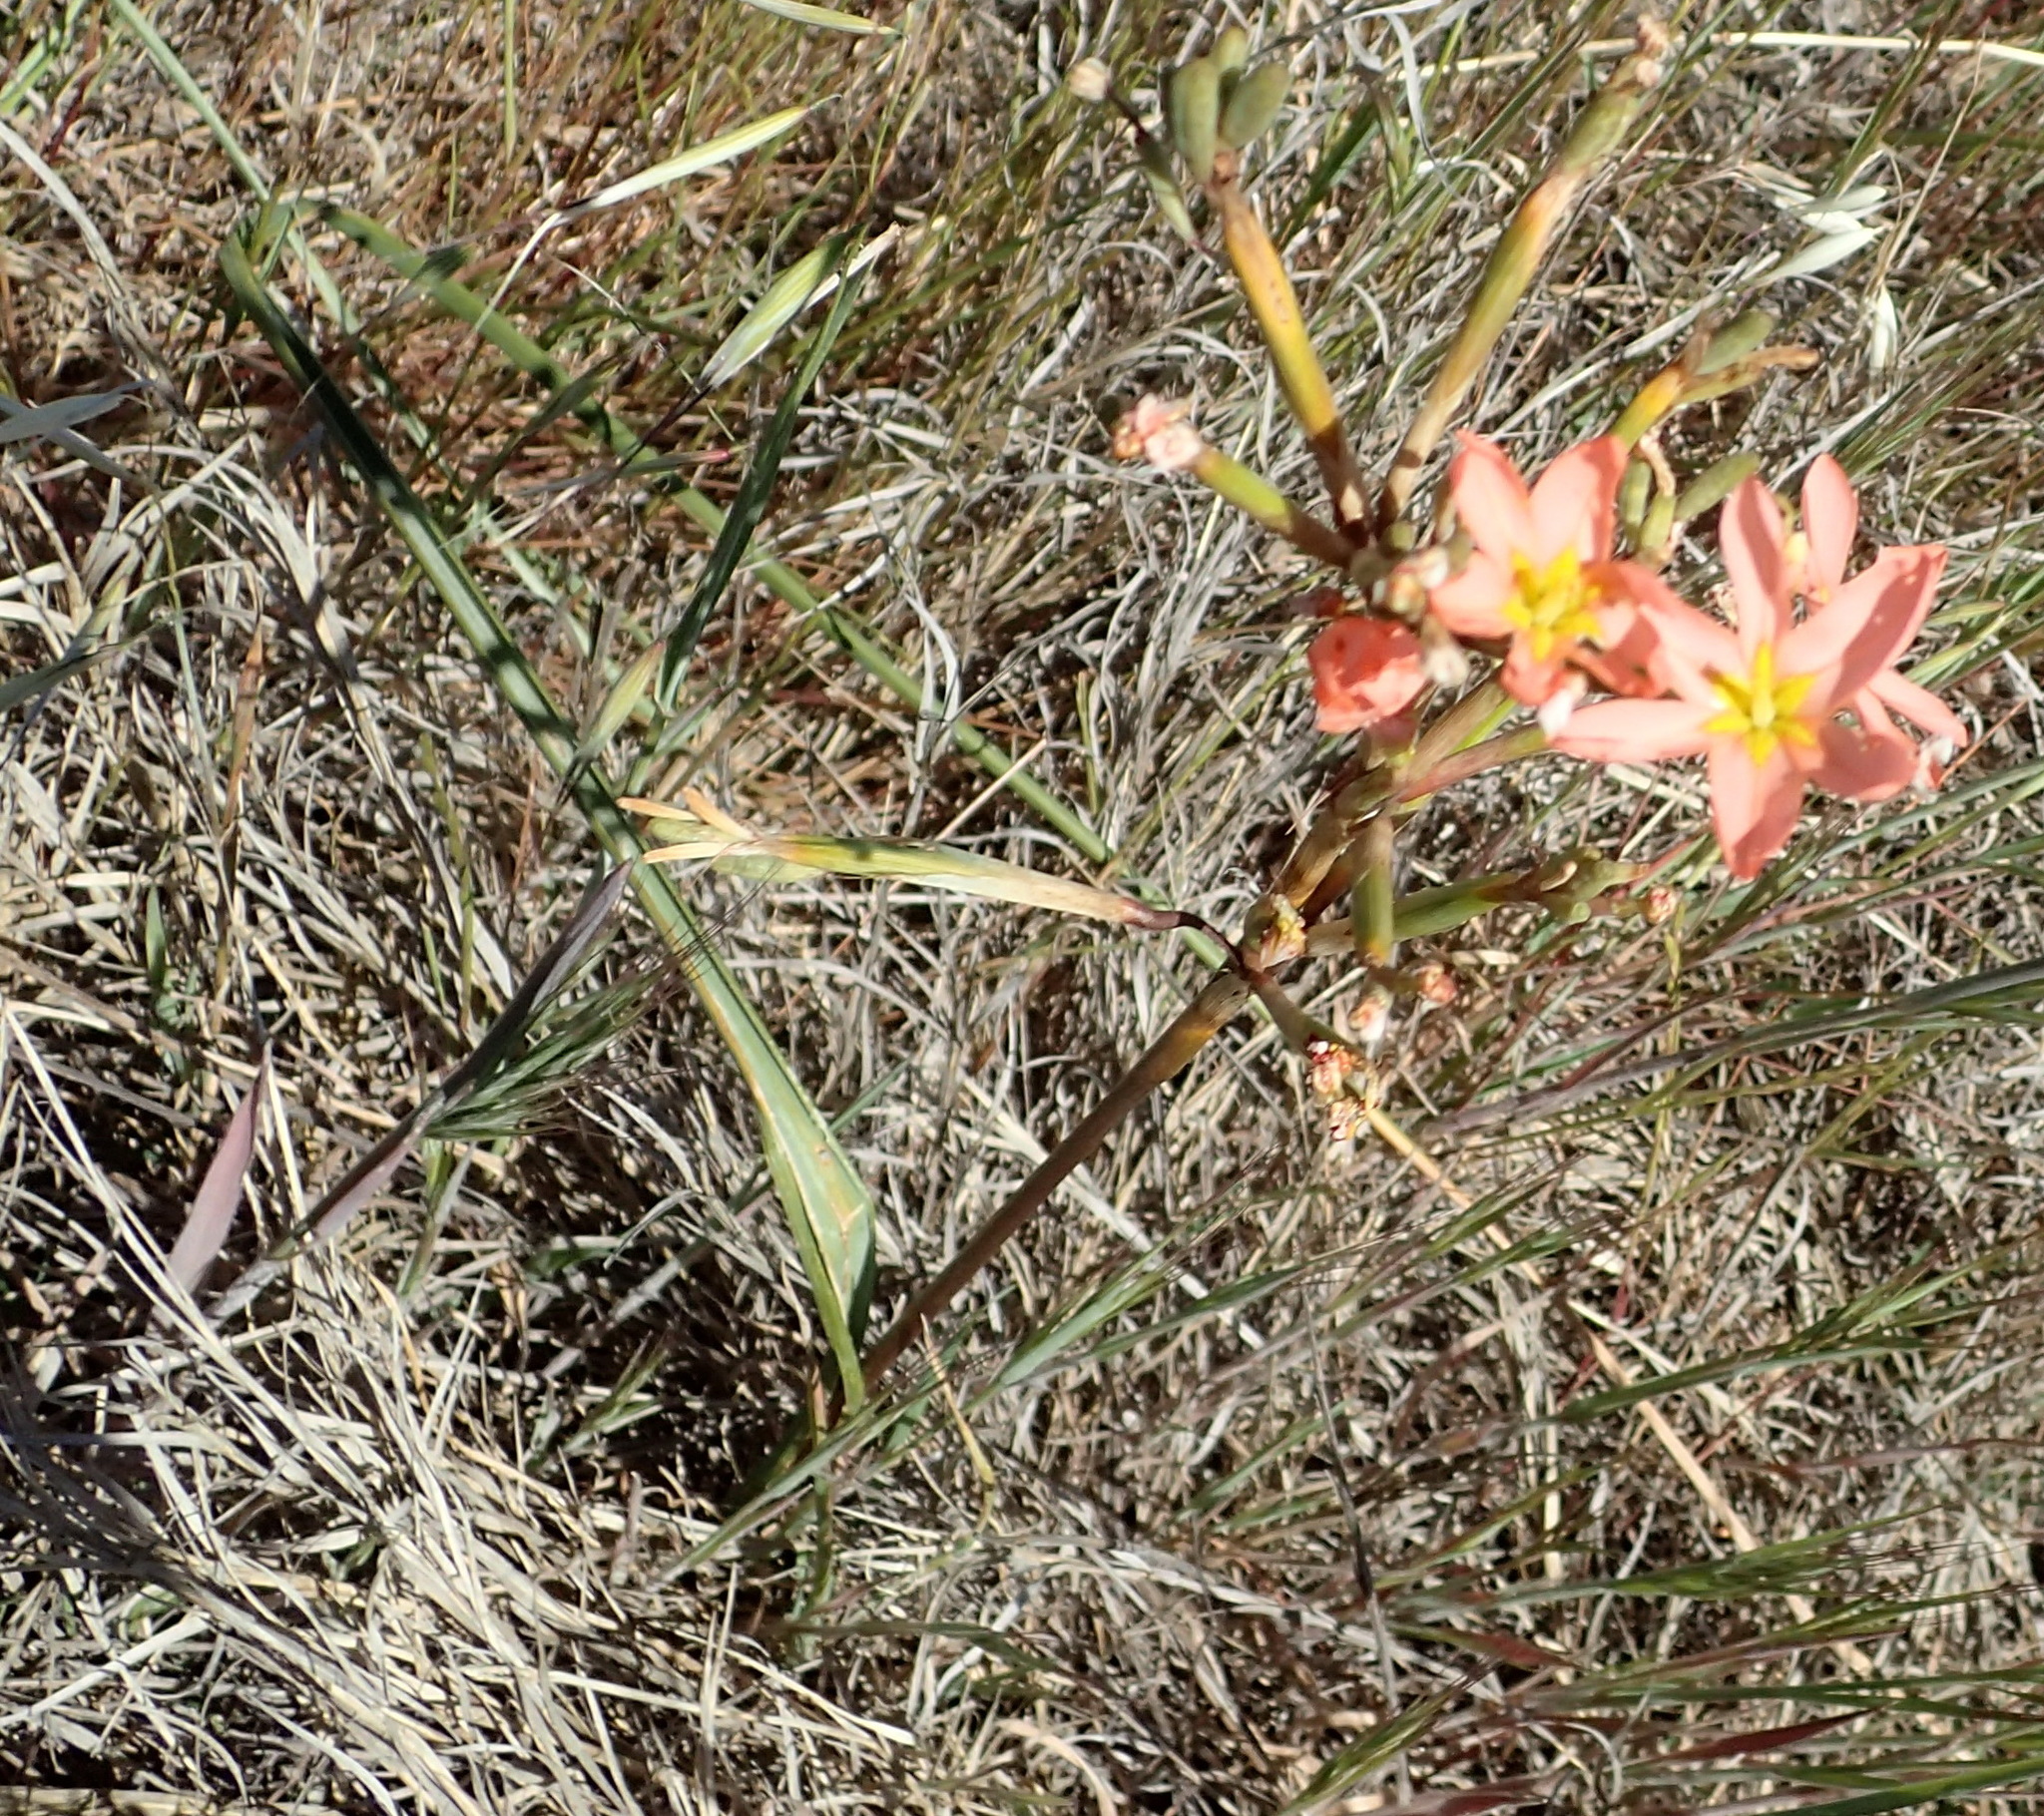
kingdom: Plantae
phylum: Tracheophyta
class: Liliopsida
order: Asparagales
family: Iridaceae
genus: Moraea
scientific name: Moraea bifida
